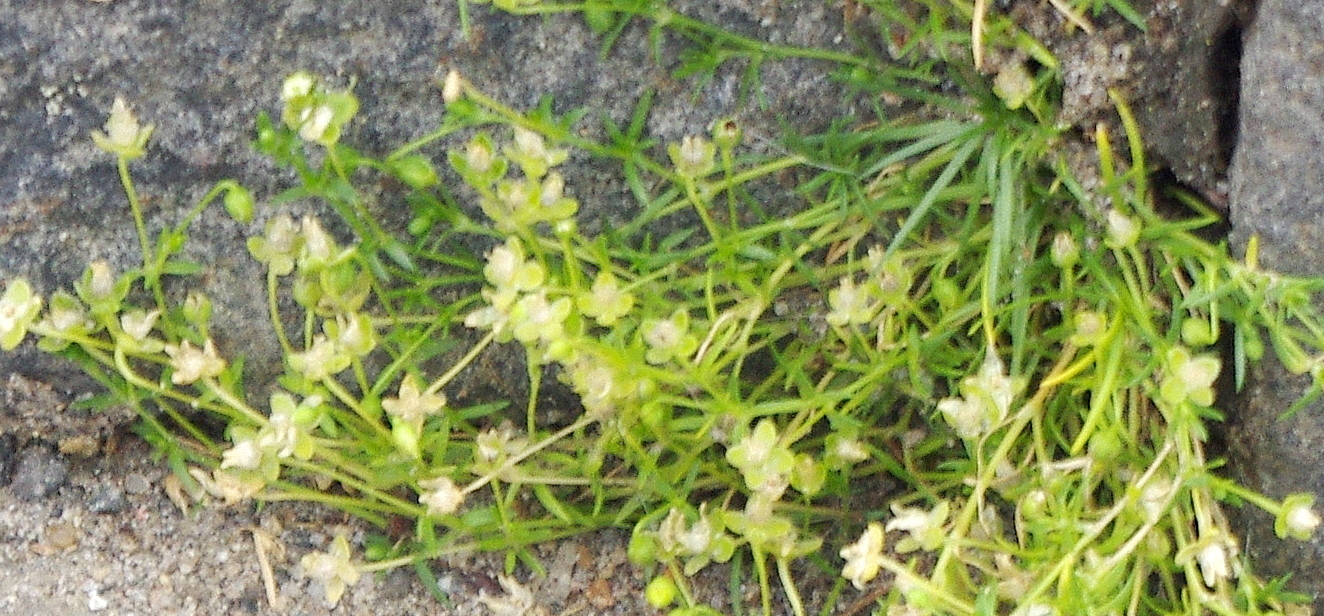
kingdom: Plantae
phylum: Tracheophyta
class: Magnoliopsida
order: Caryophyllales
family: Caryophyllaceae
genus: Sagina
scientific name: Sagina procumbens
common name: Procumbent pearlwort
